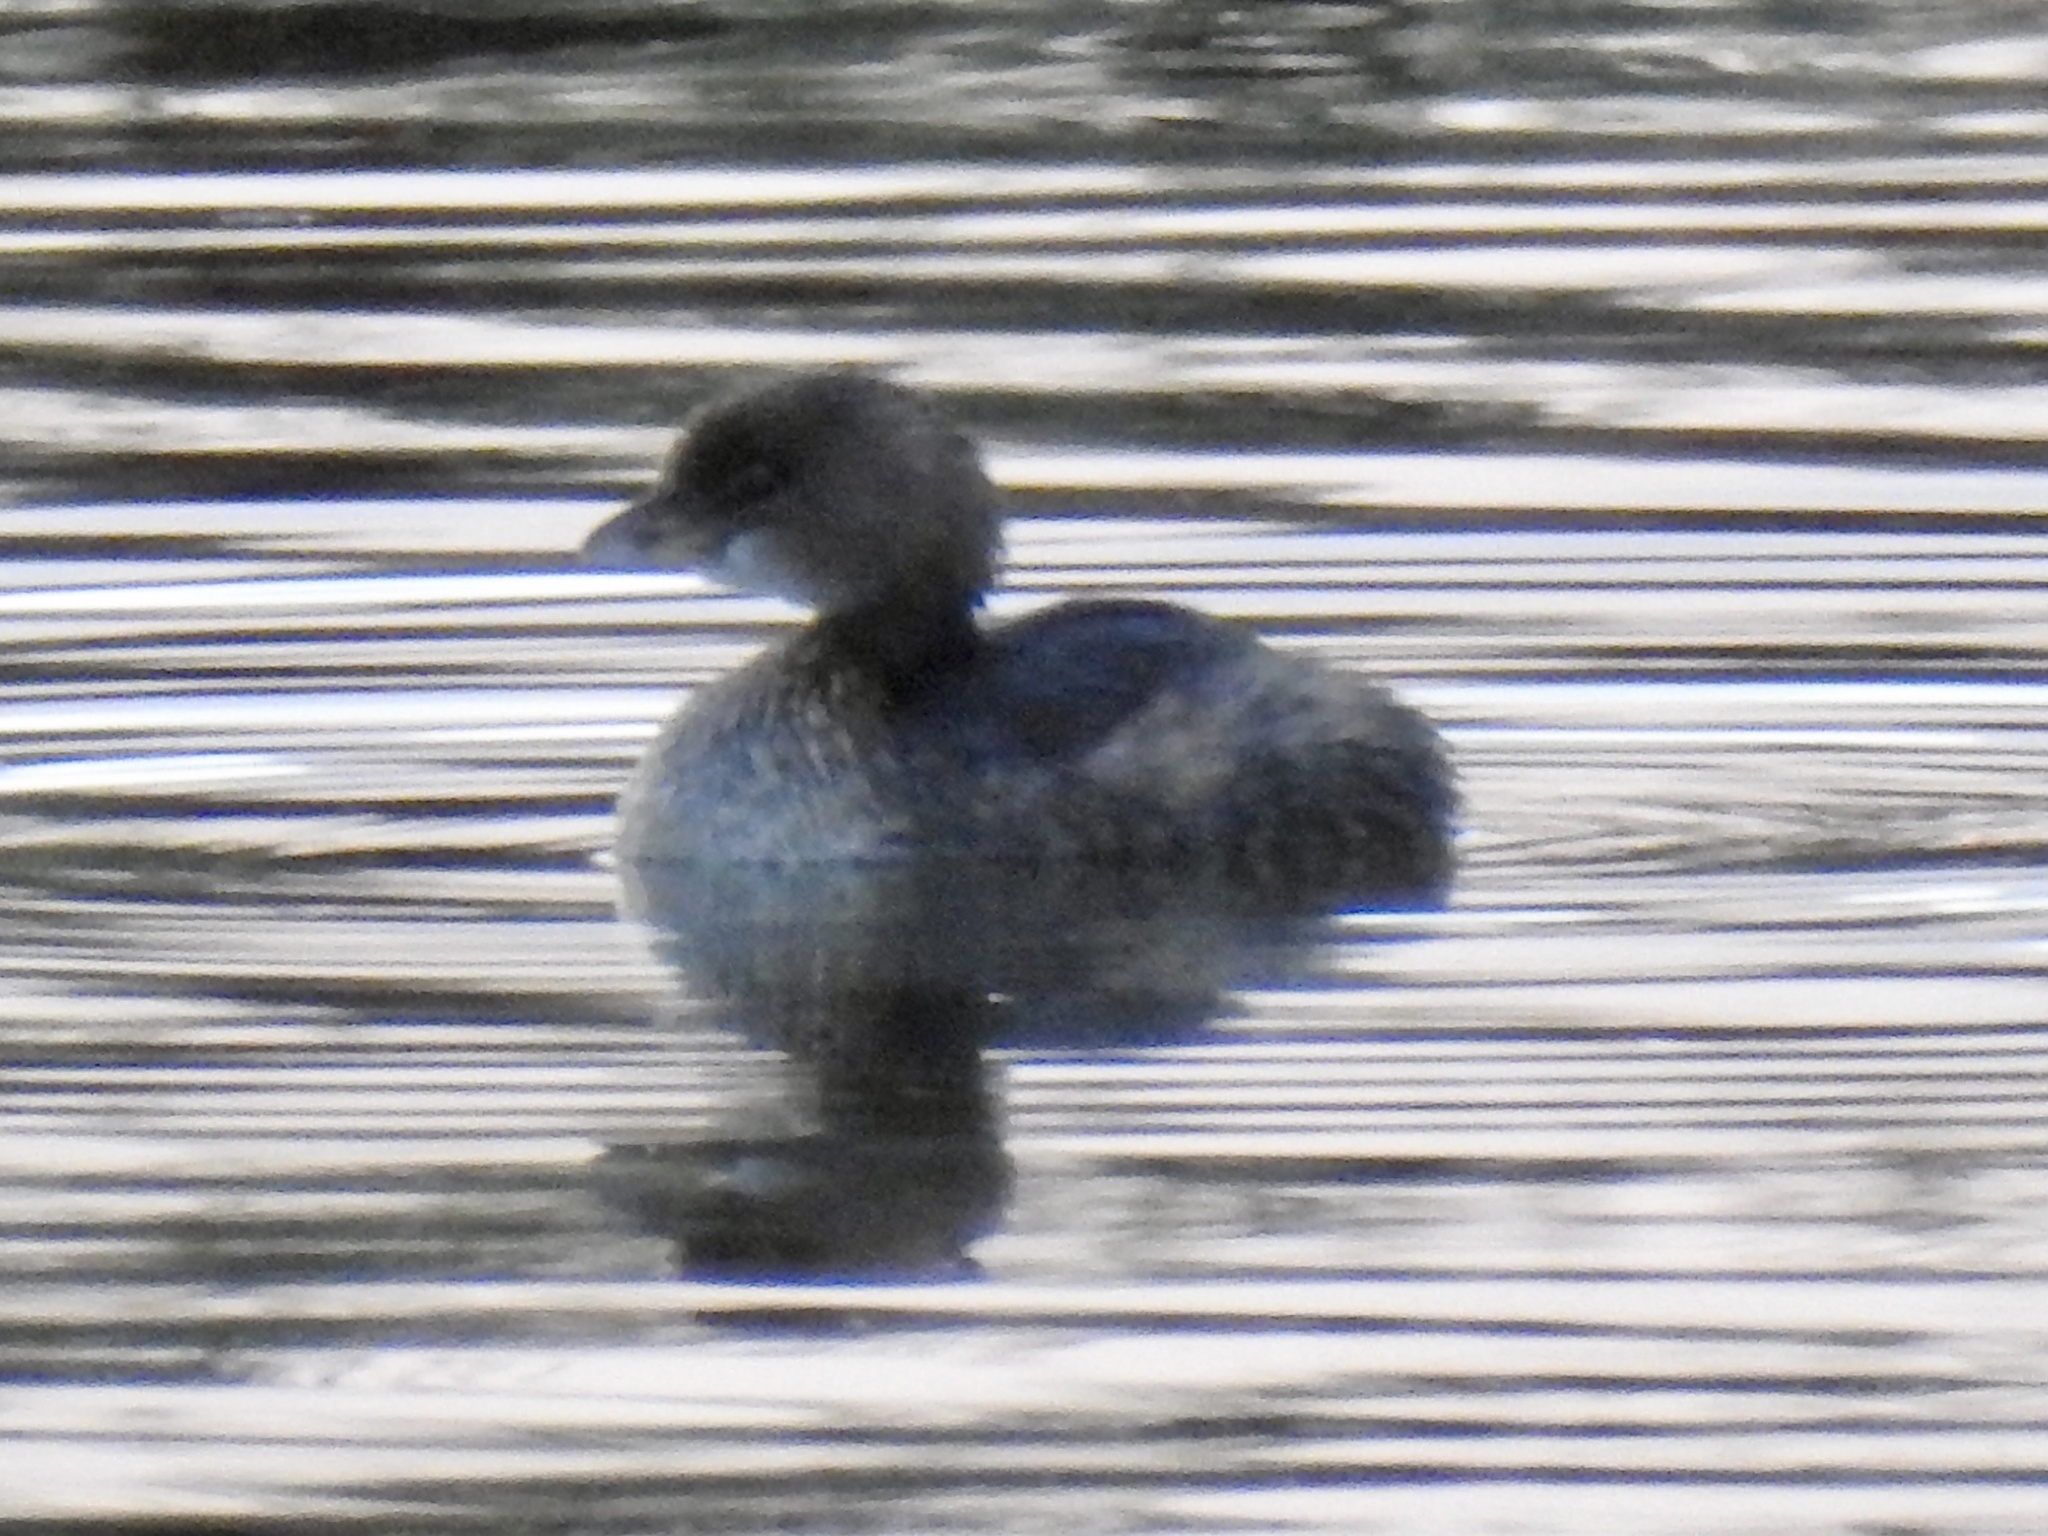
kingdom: Animalia
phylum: Chordata
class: Aves
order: Podicipediformes
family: Podicipedidae
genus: Podilymbus
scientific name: Podilymbus podiceps
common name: Pied-billed grebe
